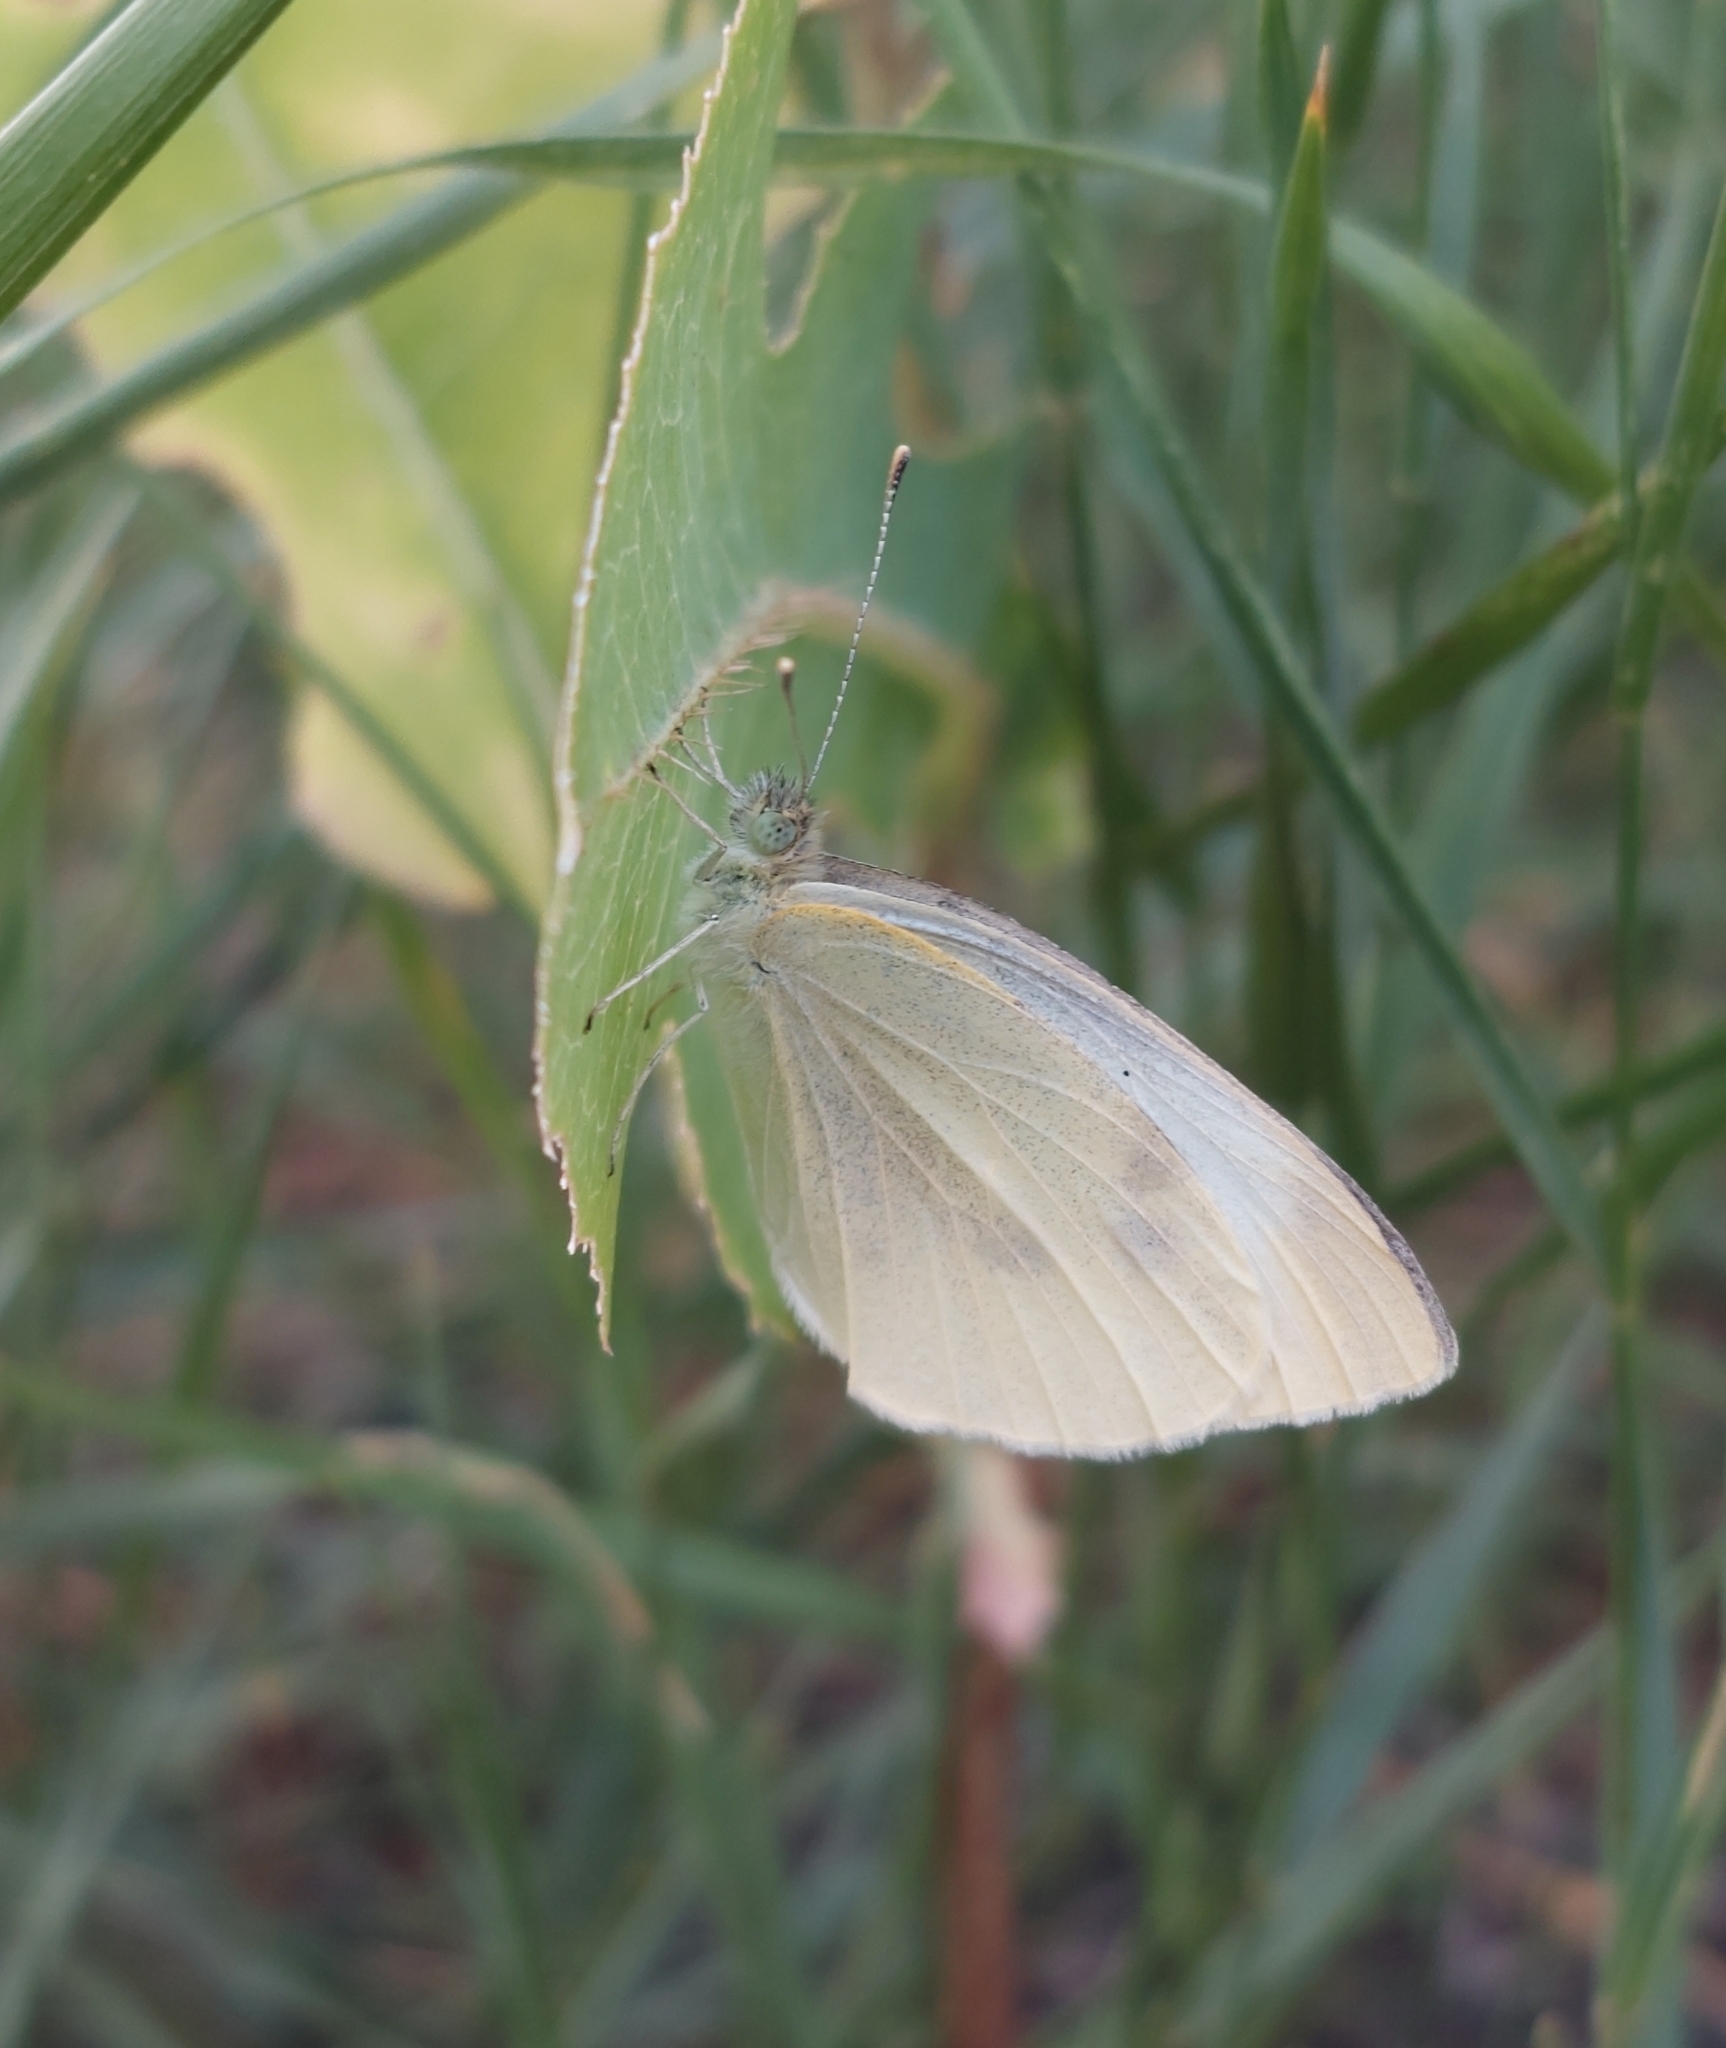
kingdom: Animalia
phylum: Arthropoda
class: Insecta
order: Lepidoptera
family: Pieridae
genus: Pieris
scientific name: Pieris rapae
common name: Small white
